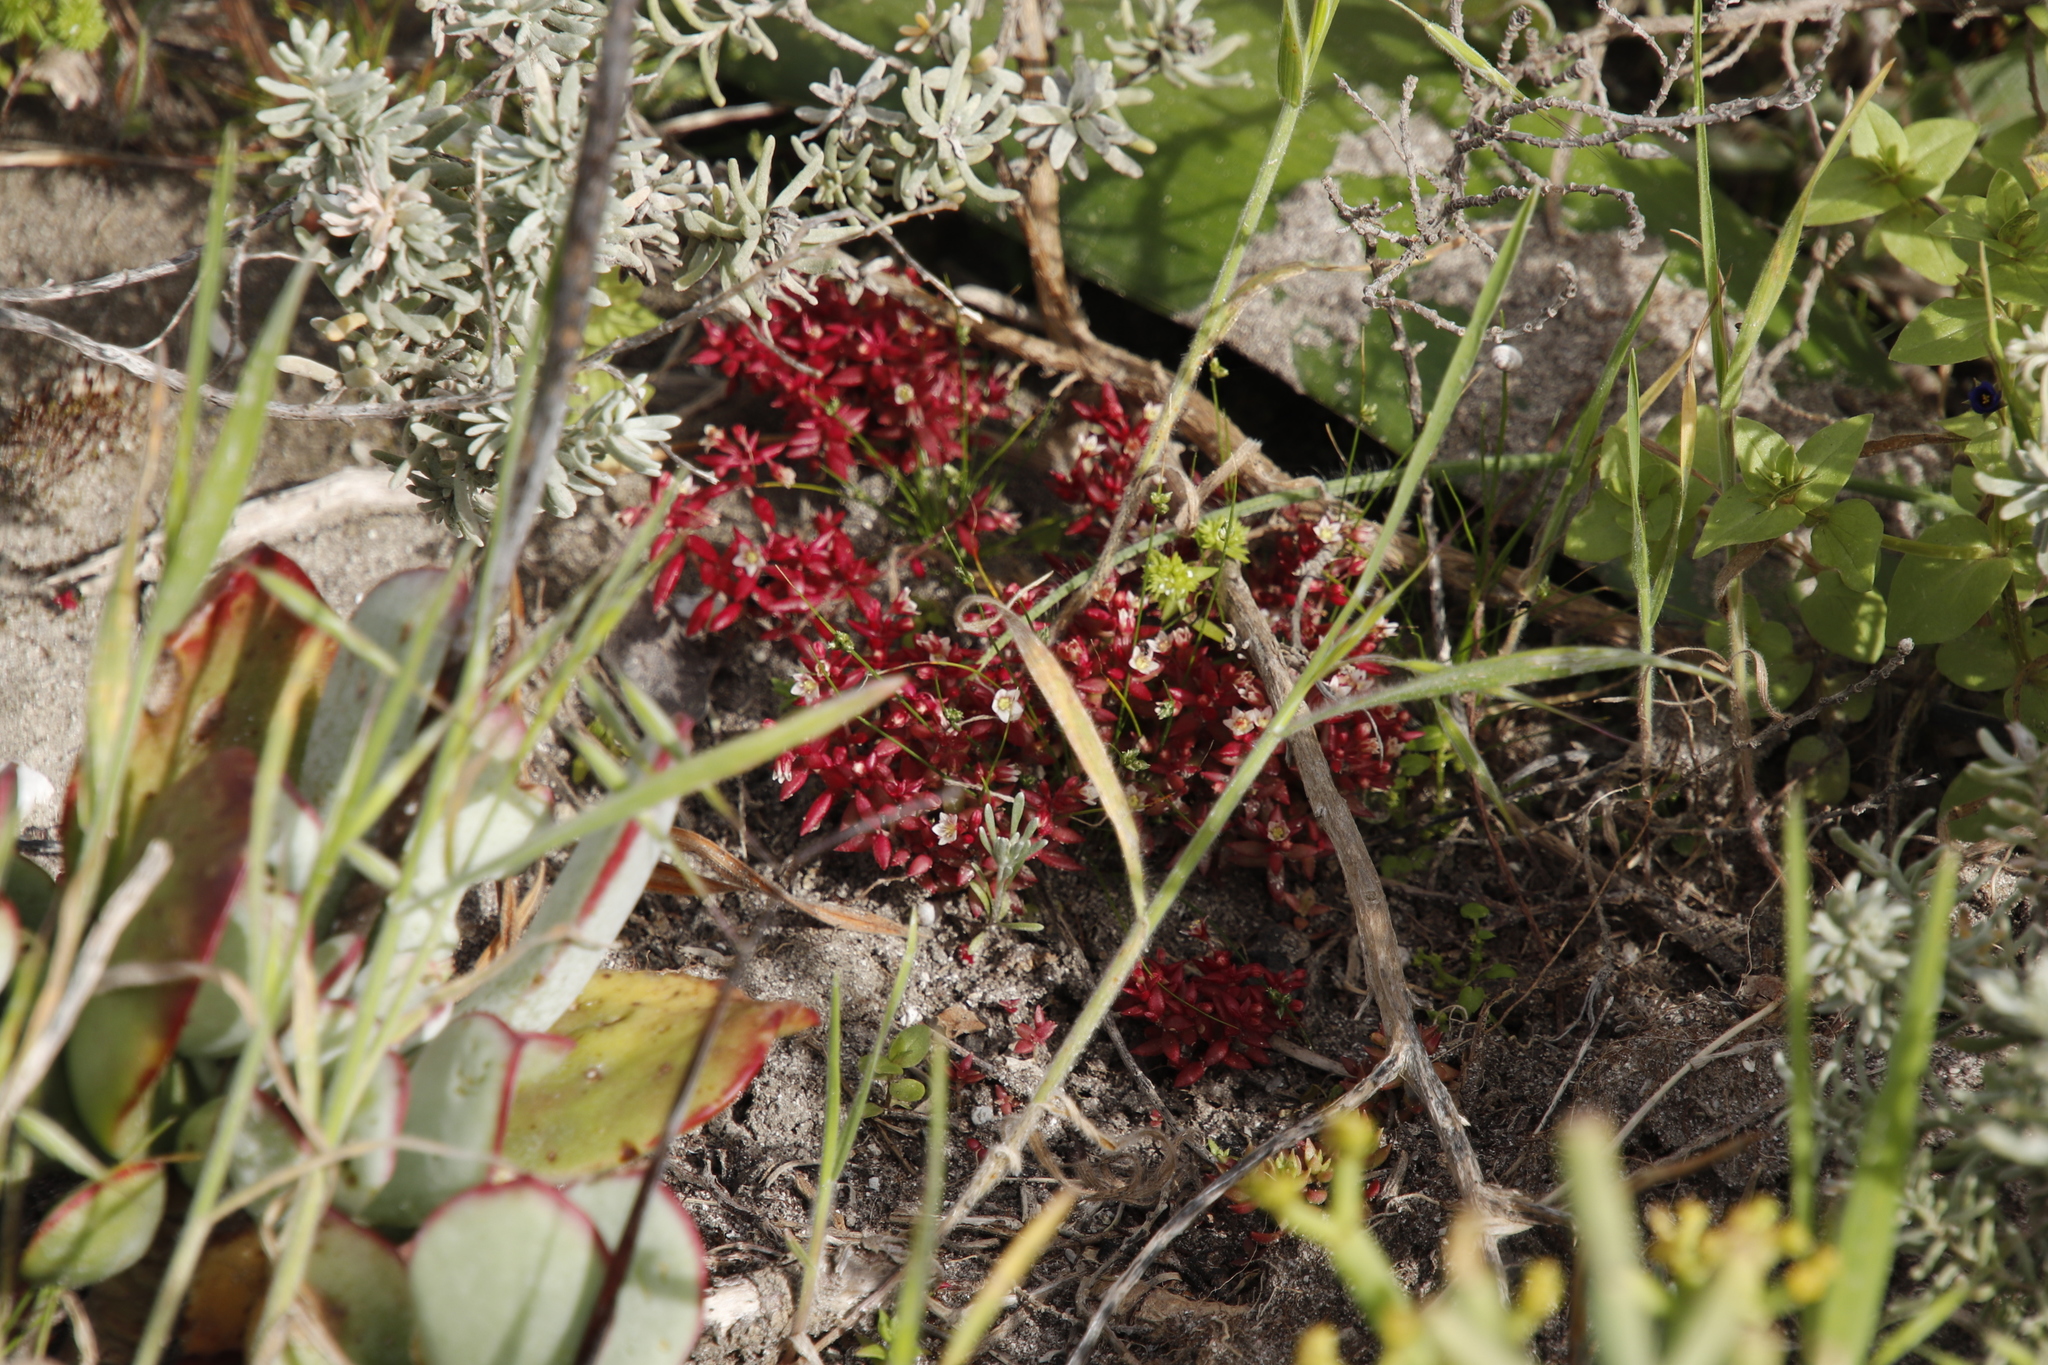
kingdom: Plantae
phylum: Tracheophyta
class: Magnoliopsida
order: Saxifragales
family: Crassulaceae
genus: Crassula
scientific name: Crassula expansa
